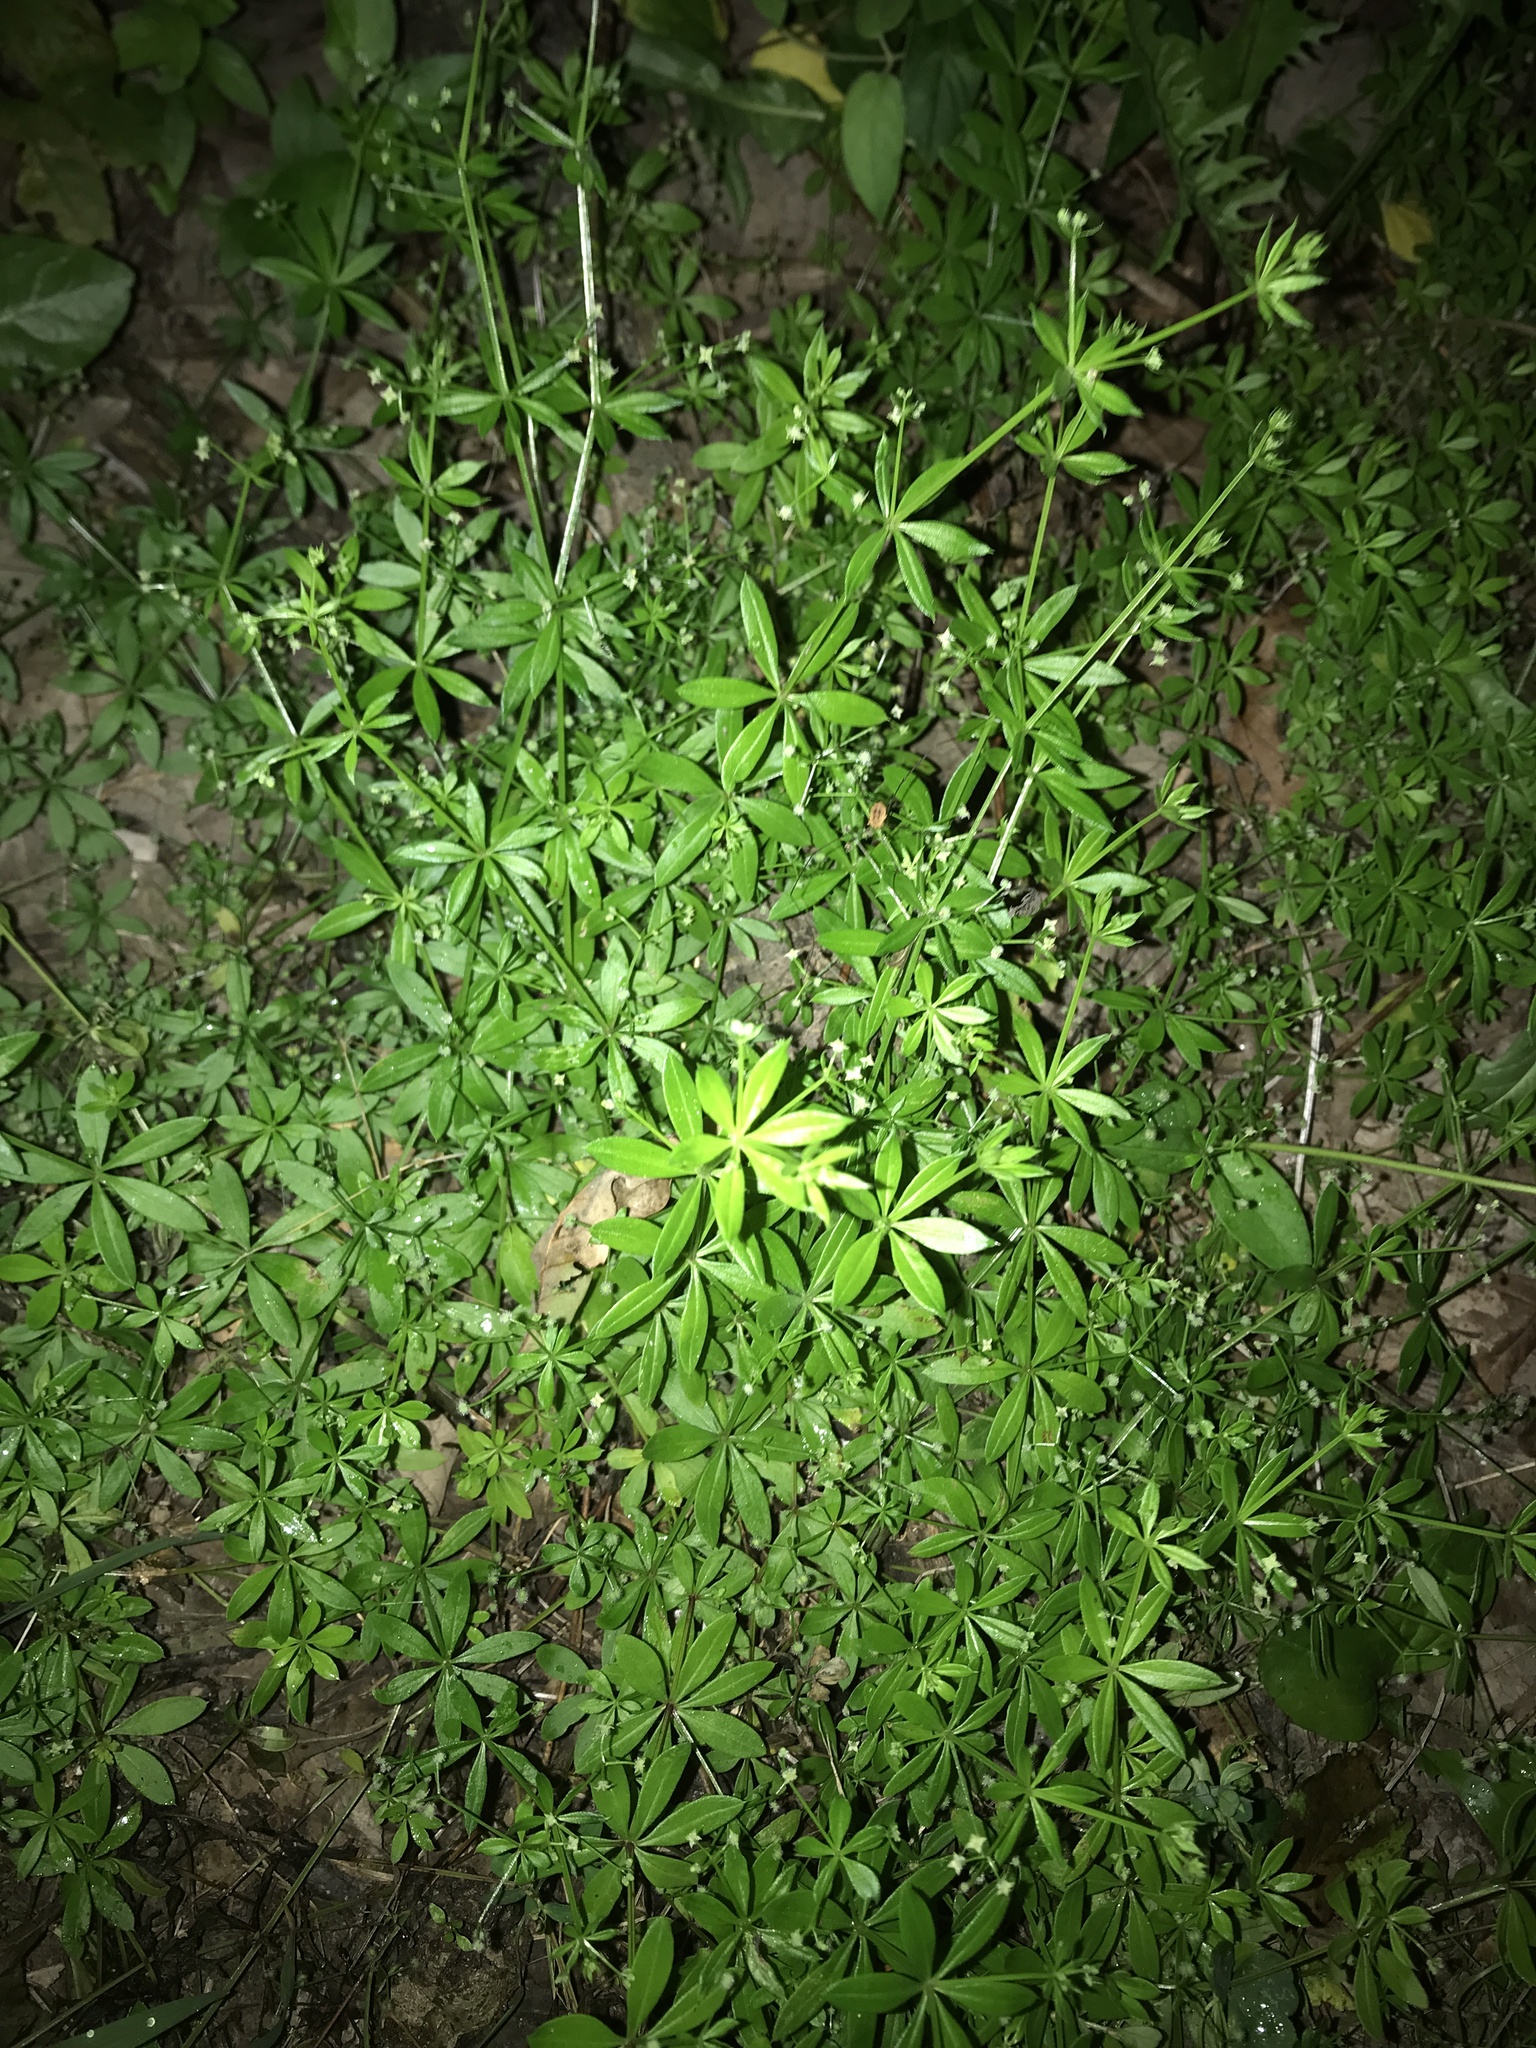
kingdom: Plantae
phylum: Tracheophyta
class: Magnoliopsida
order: Gentianales
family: Rubiaceae
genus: Galium
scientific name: Galium triflorum
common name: Fragrant bedstraw
